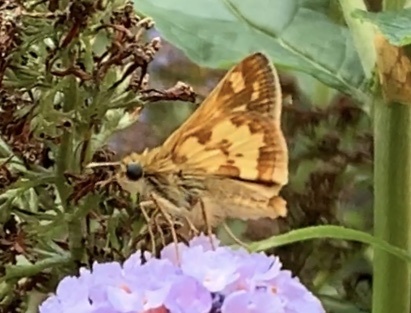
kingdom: Animalia
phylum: Arthropoda
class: Insecta
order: Lepidoptera
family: Hesperiidae
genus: Polites
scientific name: Polites coras
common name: Peck's skipper
